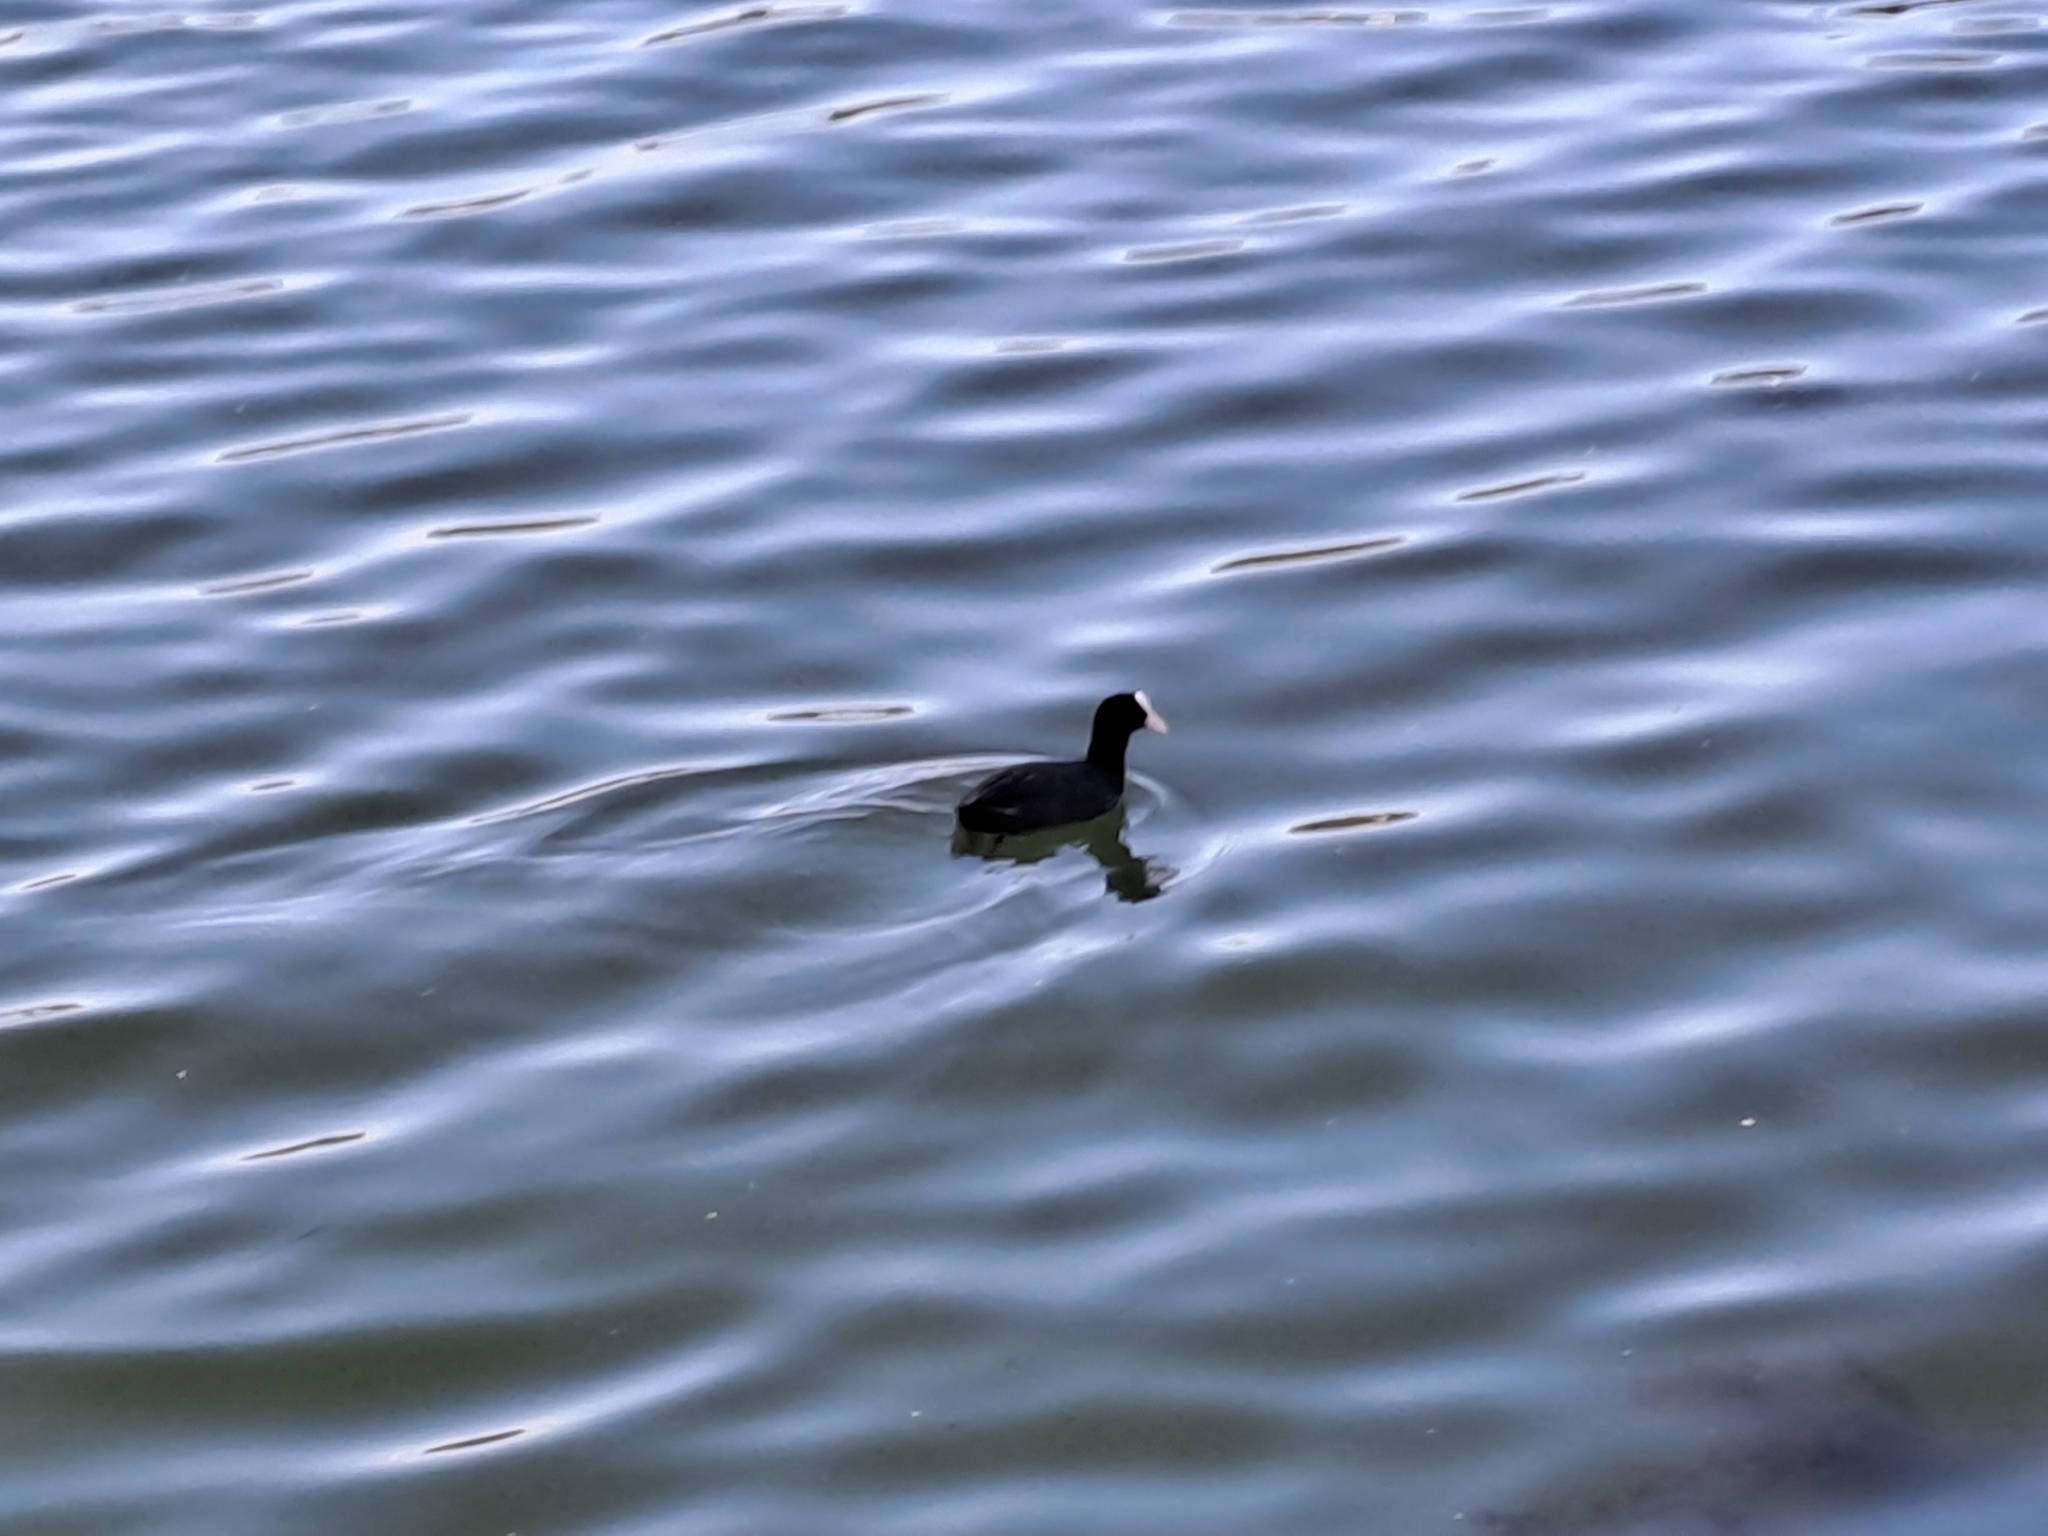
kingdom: Animalia
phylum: Chordata
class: Aves
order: Gruiformes
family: Rallidae
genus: Fulica
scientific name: Fulica atra
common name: Eurasian coot
